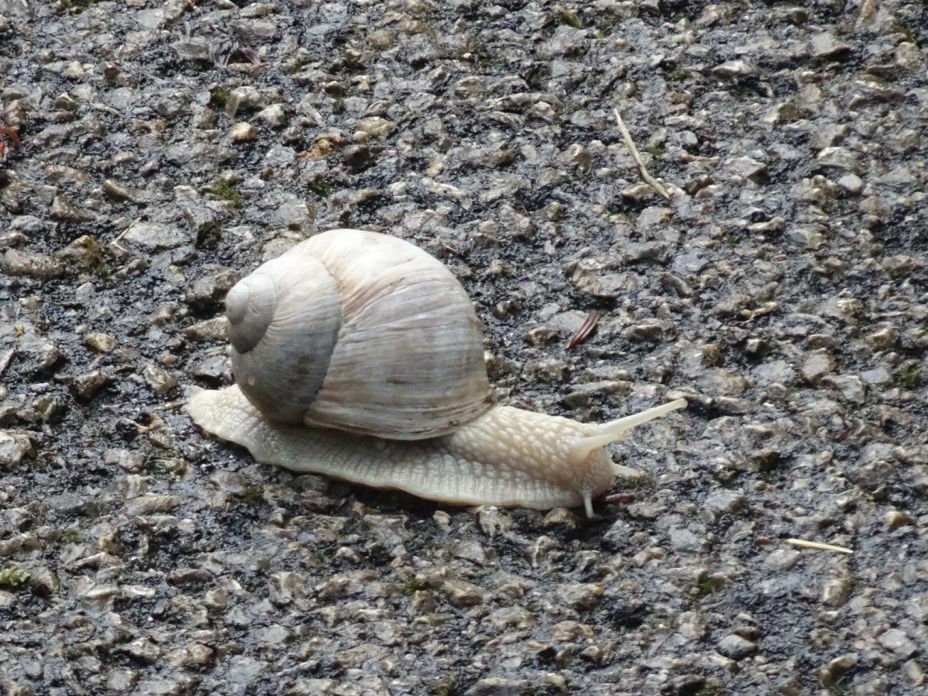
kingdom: Animalia
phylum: Mollusca
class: Gastropoda
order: Stylommatophora
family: Helicidae
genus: Helix
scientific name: Helix pomatia
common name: Roman snail
